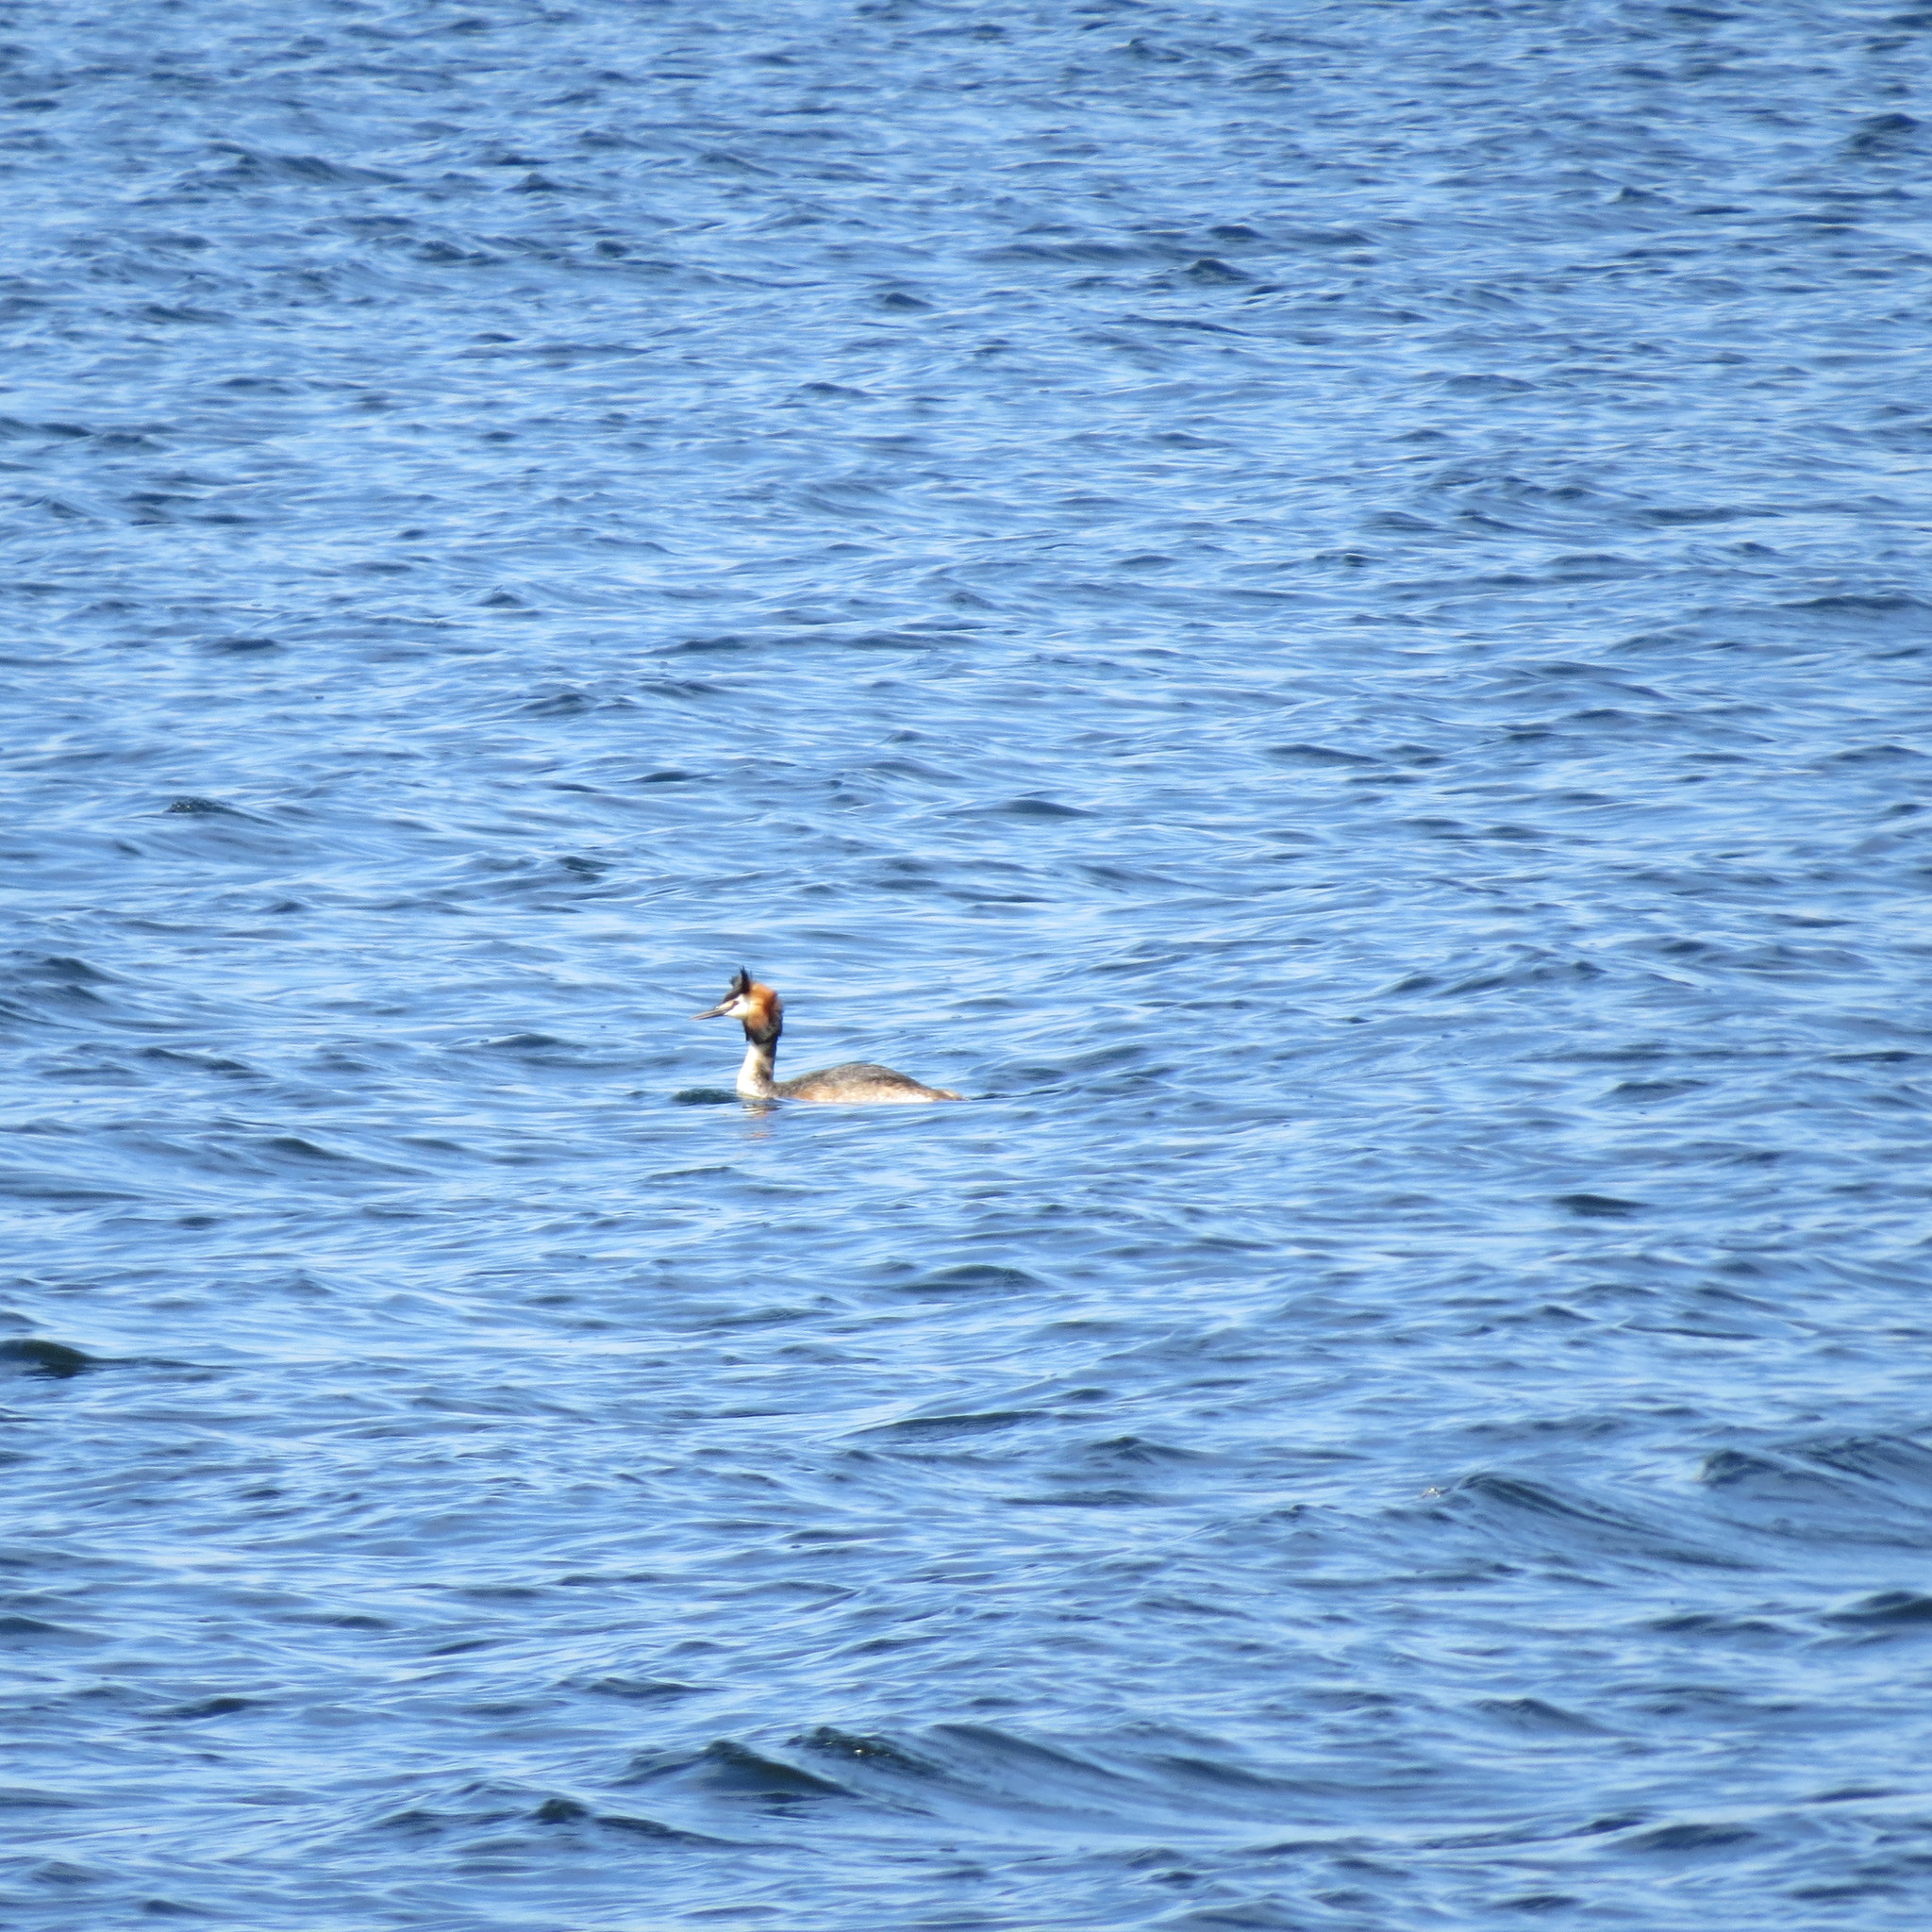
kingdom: Animalia
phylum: Chordata
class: Aves
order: Podicipediformes
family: Podicipedidae
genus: Podiceps
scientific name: Podiceps cristatus
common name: Great crested grebe
